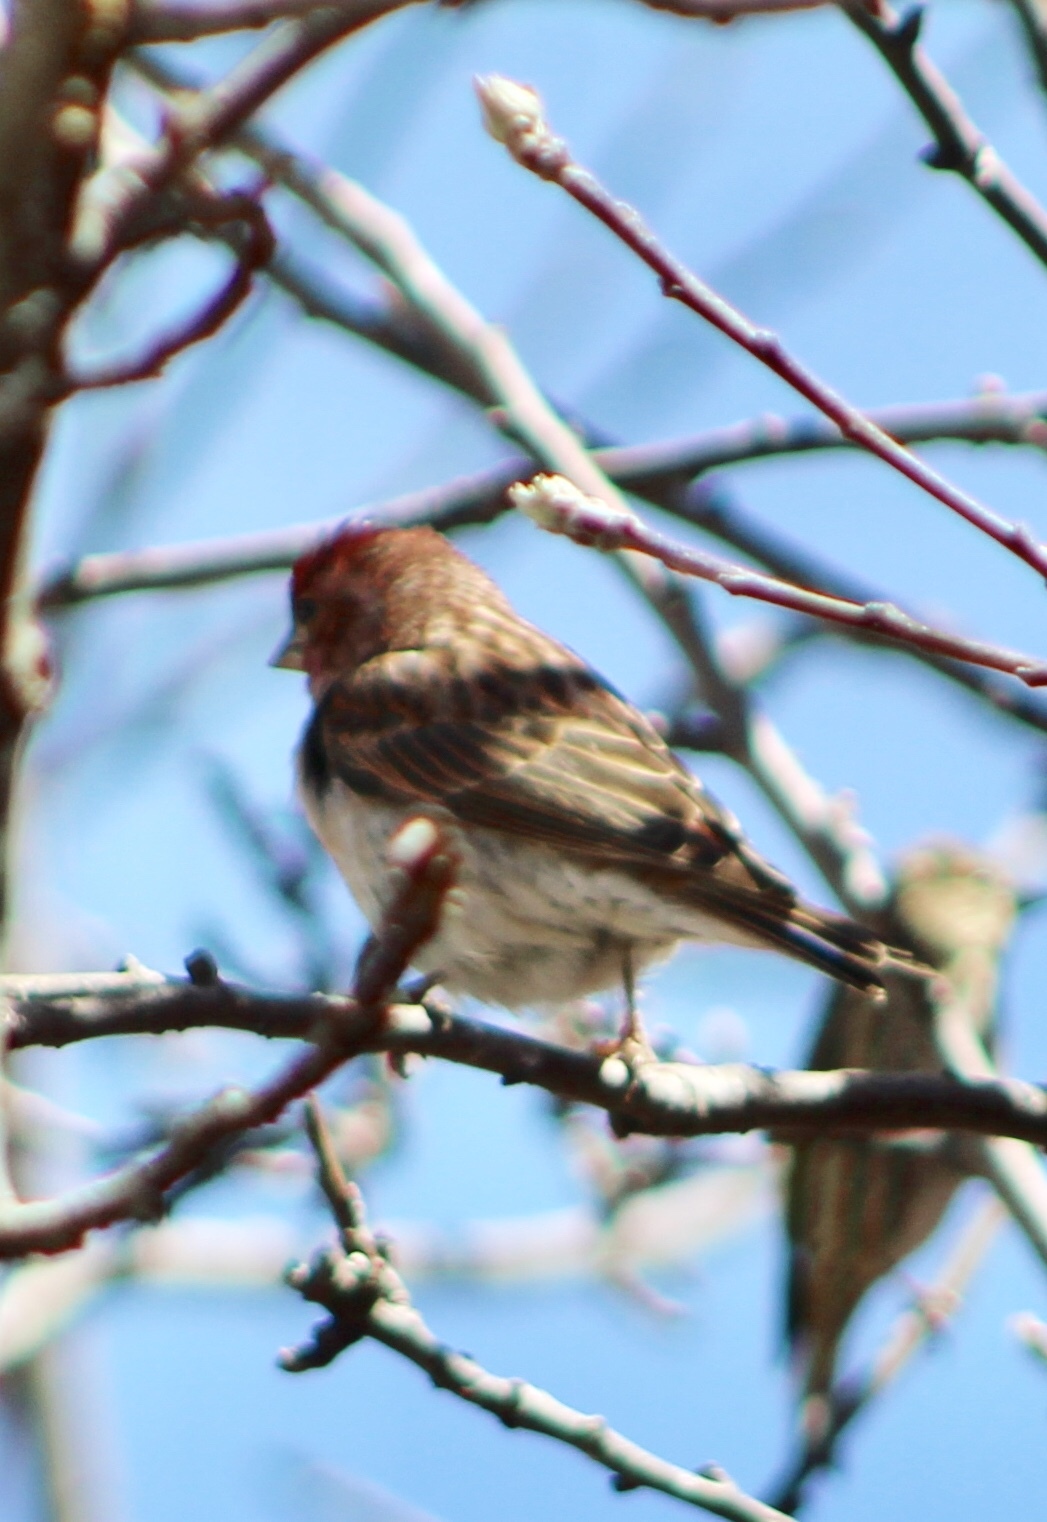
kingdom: Animalia
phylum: Chordata
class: Aves
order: Passeriformes
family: Fringillidae
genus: Haemorhous
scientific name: Haemorhous cassinii
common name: Cassin's finch
